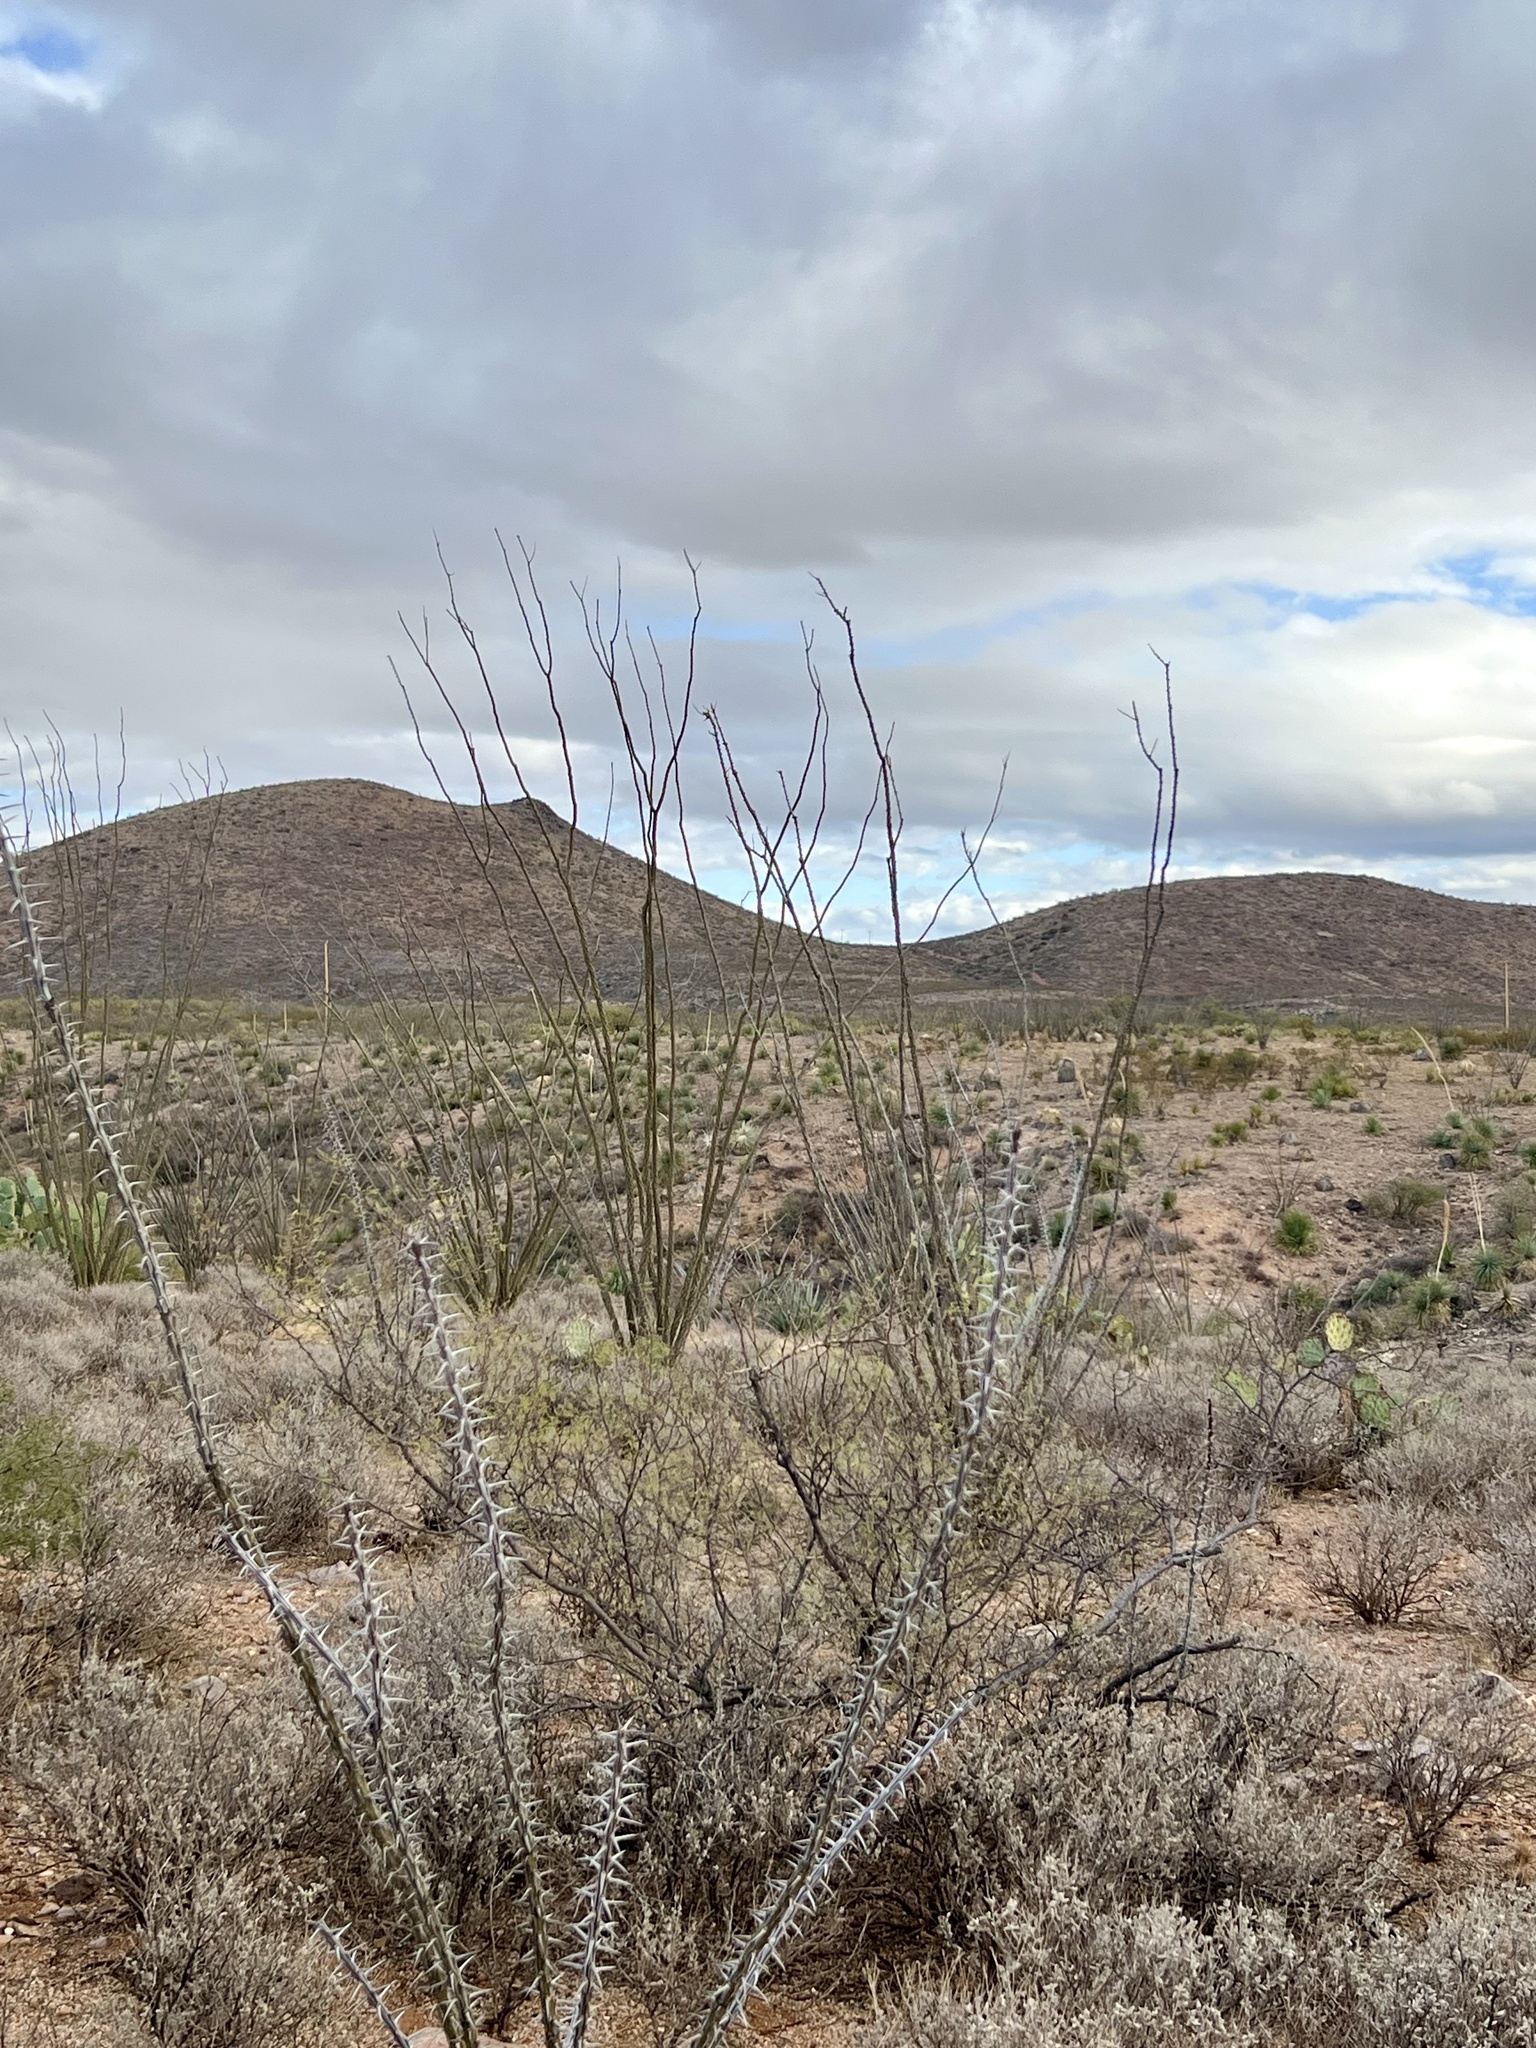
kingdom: Plantae
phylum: Tracheophyta
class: Magnoliopsida
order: Ericales
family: Fouquieriaceae
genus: Fouquieria
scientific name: Fouquieria splendens
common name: Vine-cactus
